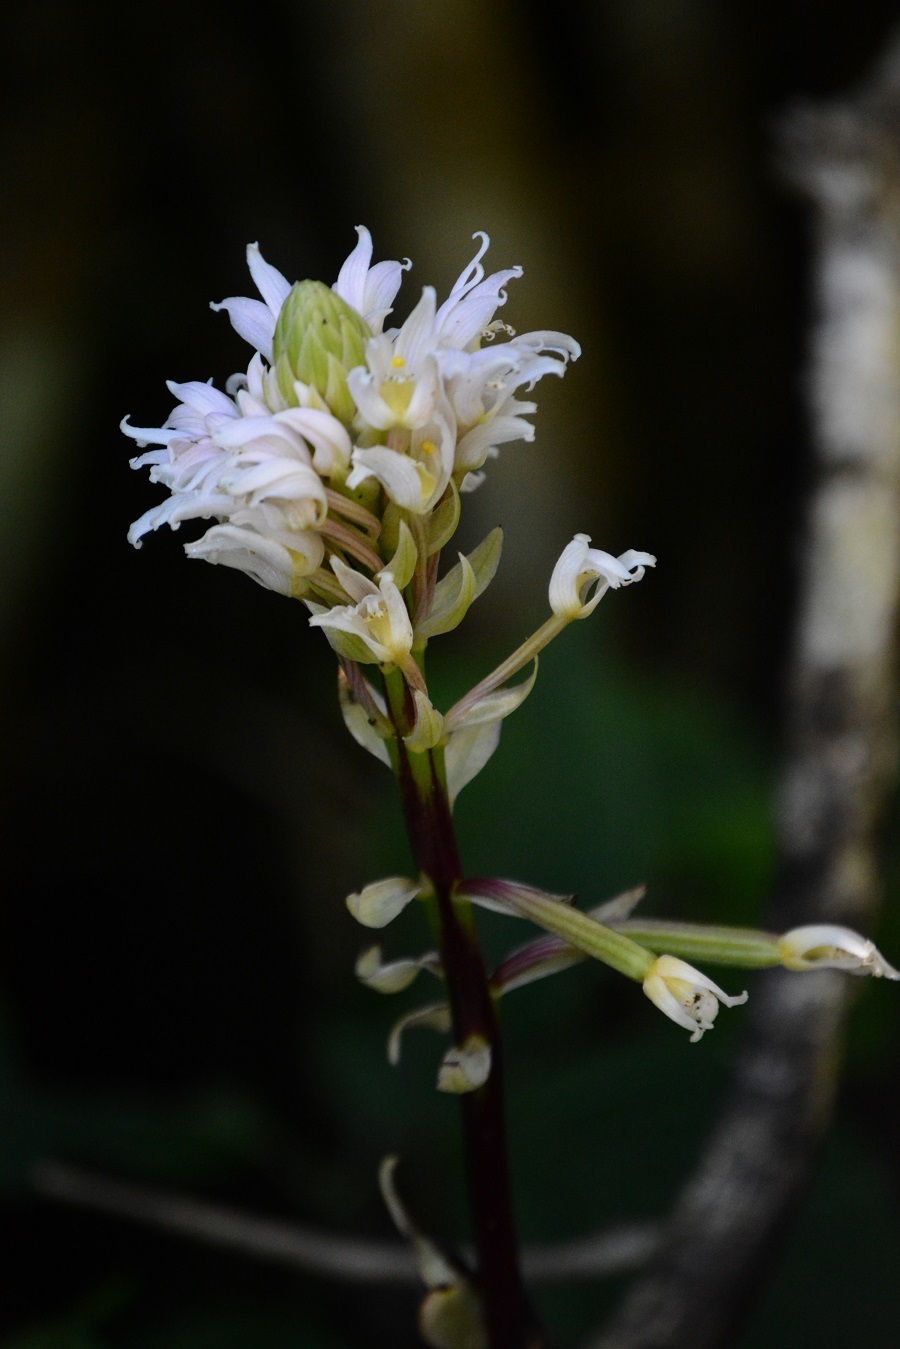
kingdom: Plantae
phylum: Tracheophyta
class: Liliopsida
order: Asparagales
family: Orchidaceae
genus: Govenia
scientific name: Govenia alba
